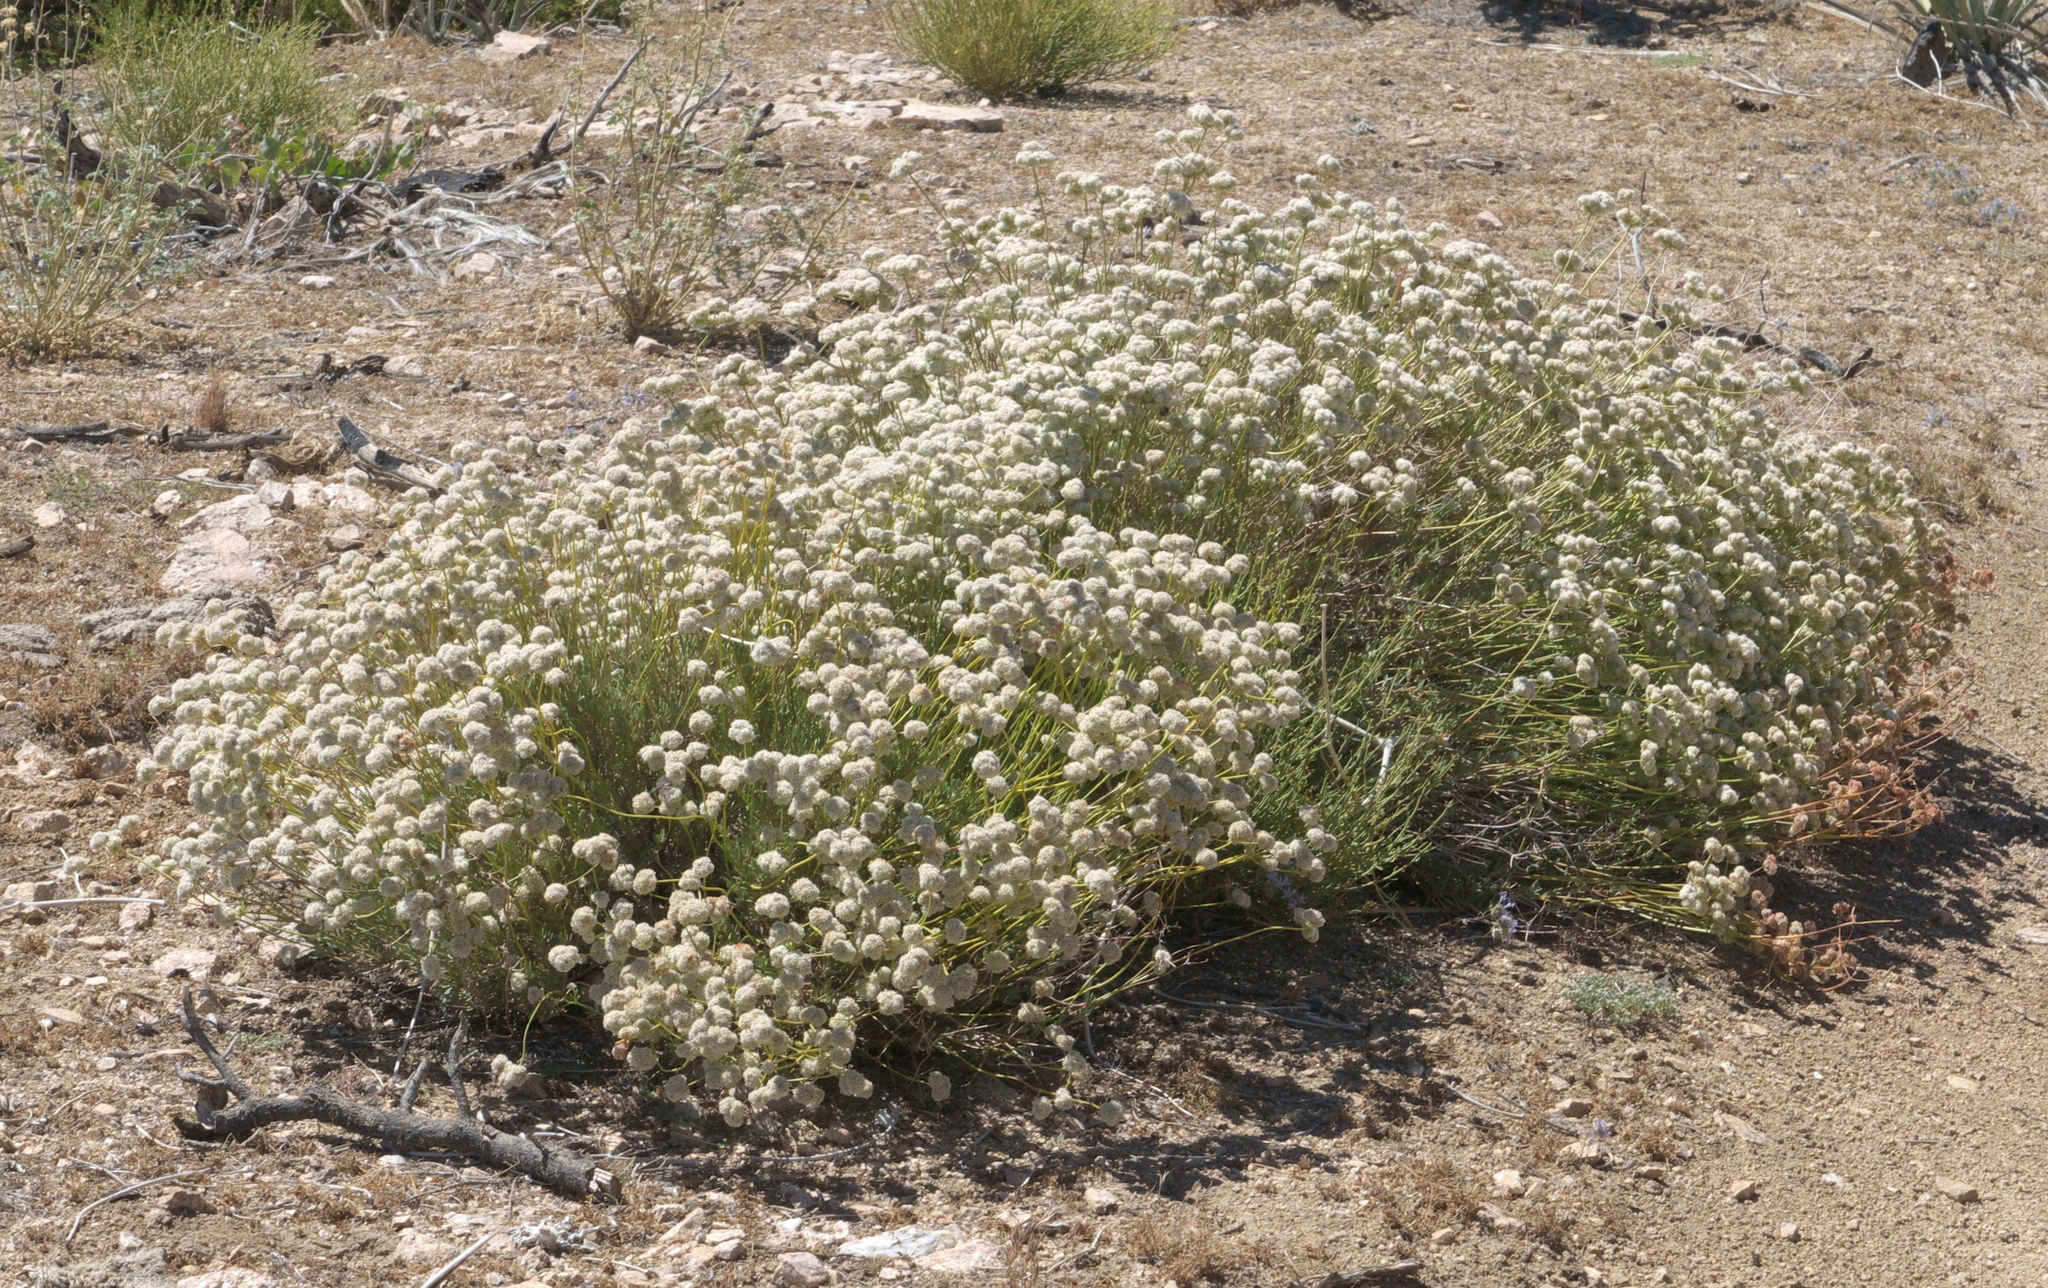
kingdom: Plantae
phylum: Tracheophyta
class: Magnoliopsida
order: Caryophyllales
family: Polygonaceae
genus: Eriogonum
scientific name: Eriogonum fasciculatum
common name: California wild buckwheat
